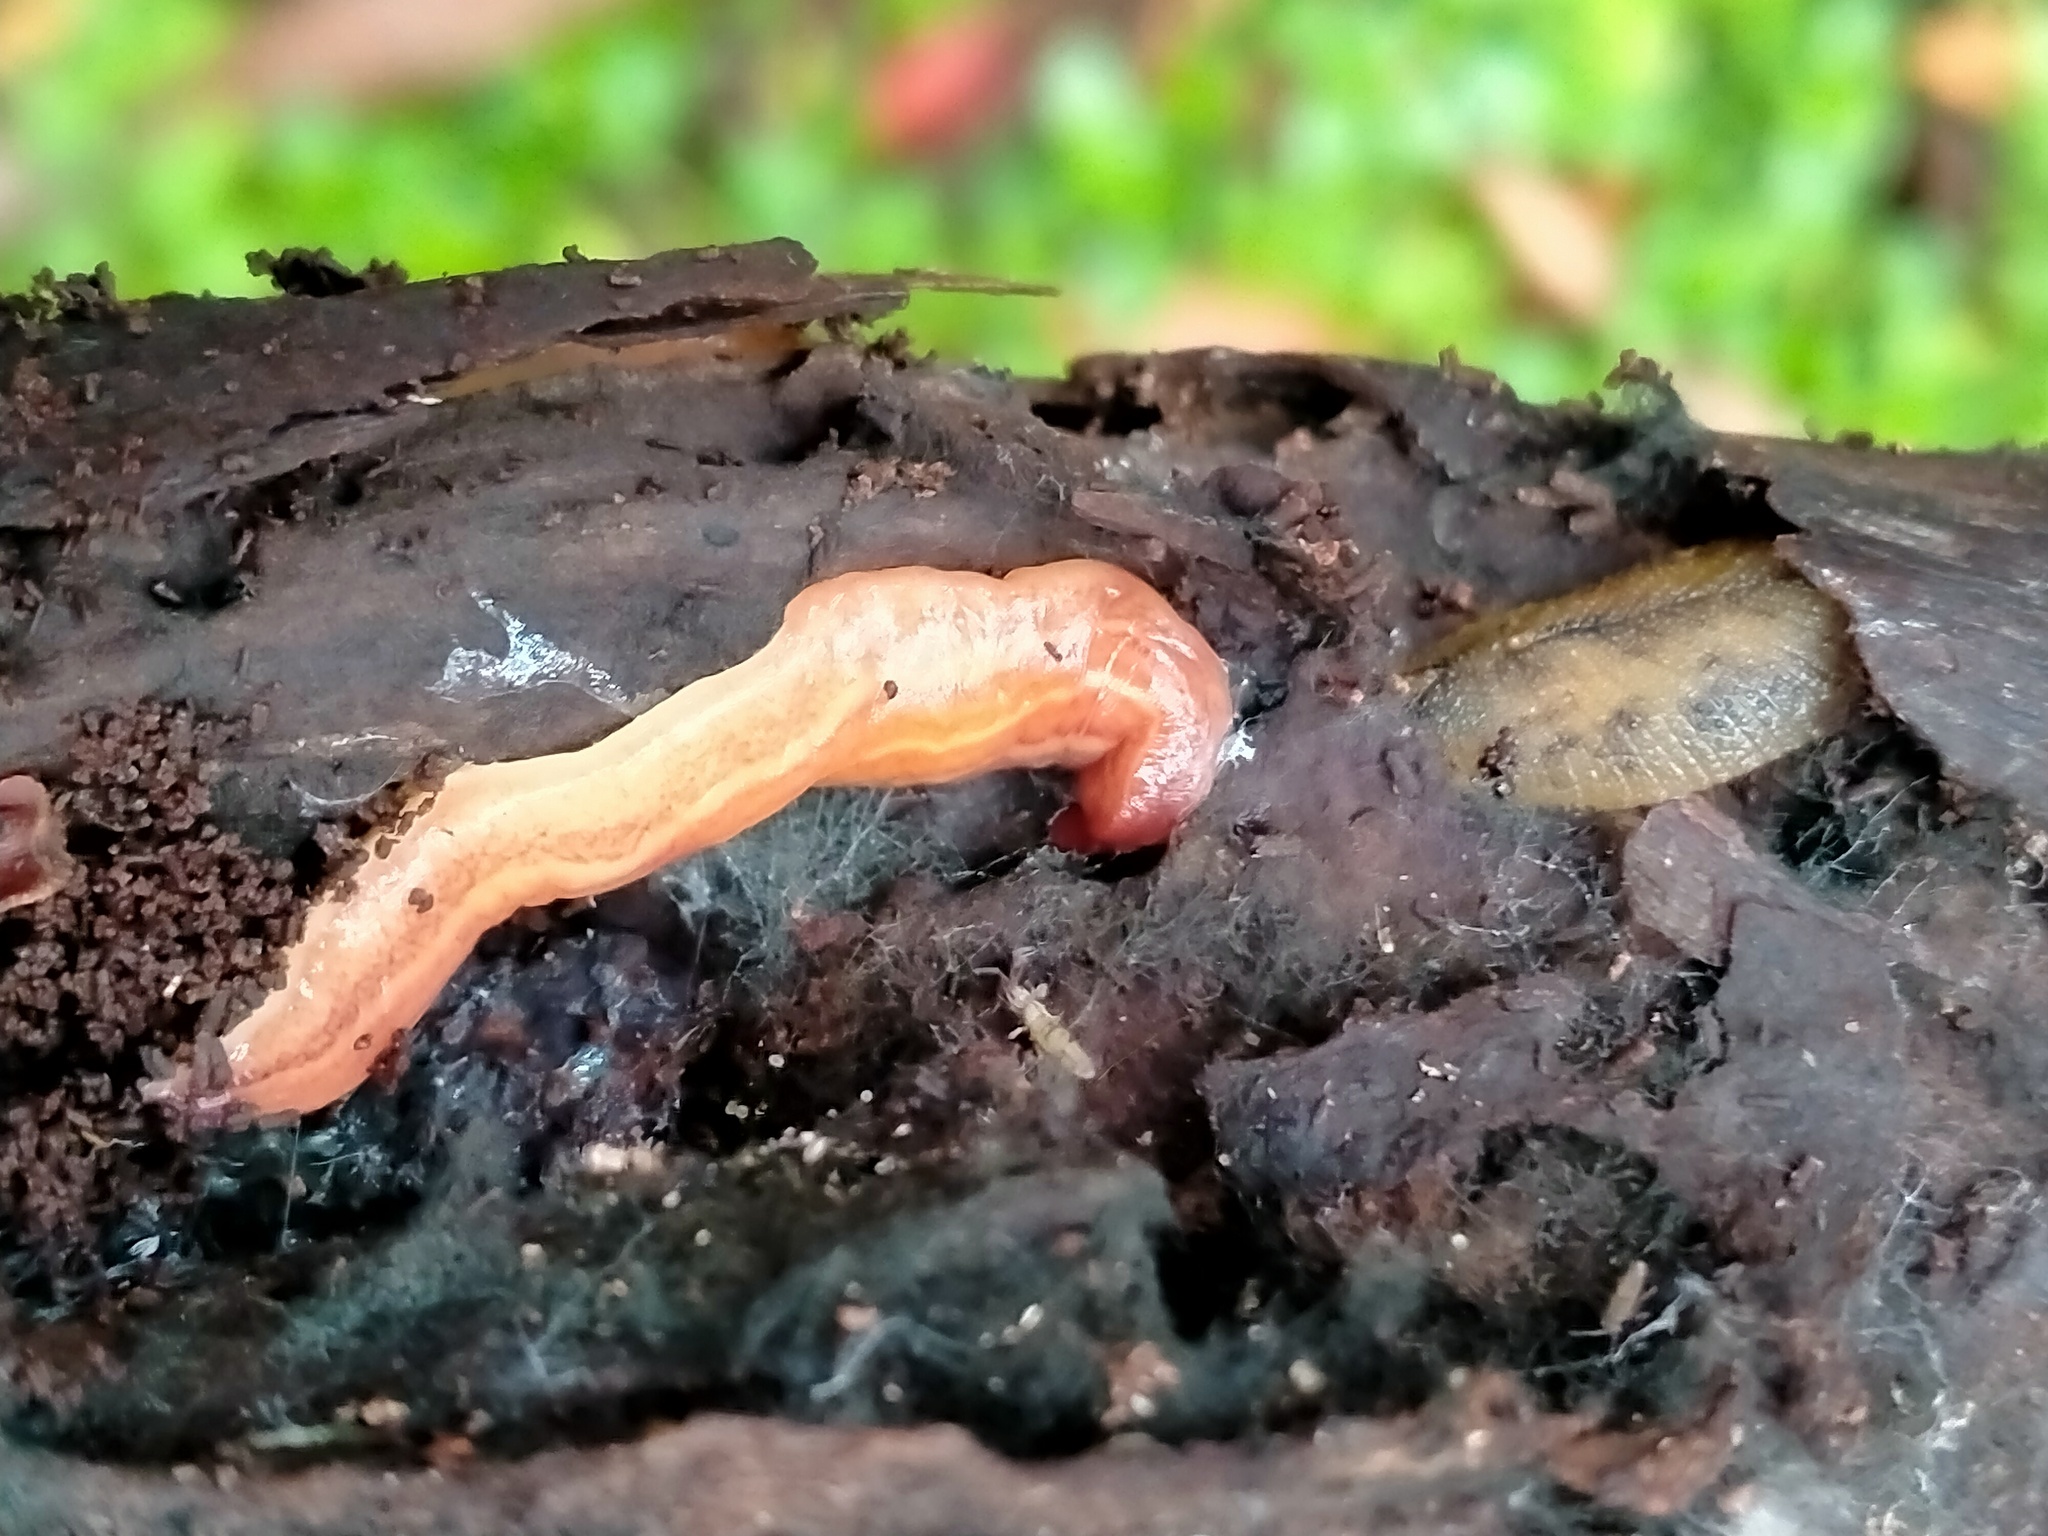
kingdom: Animalia
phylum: Platyhelminthes
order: Tricladida
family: Geoplanidae
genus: Marionfyfea
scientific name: Marionfyfea carnleyi
